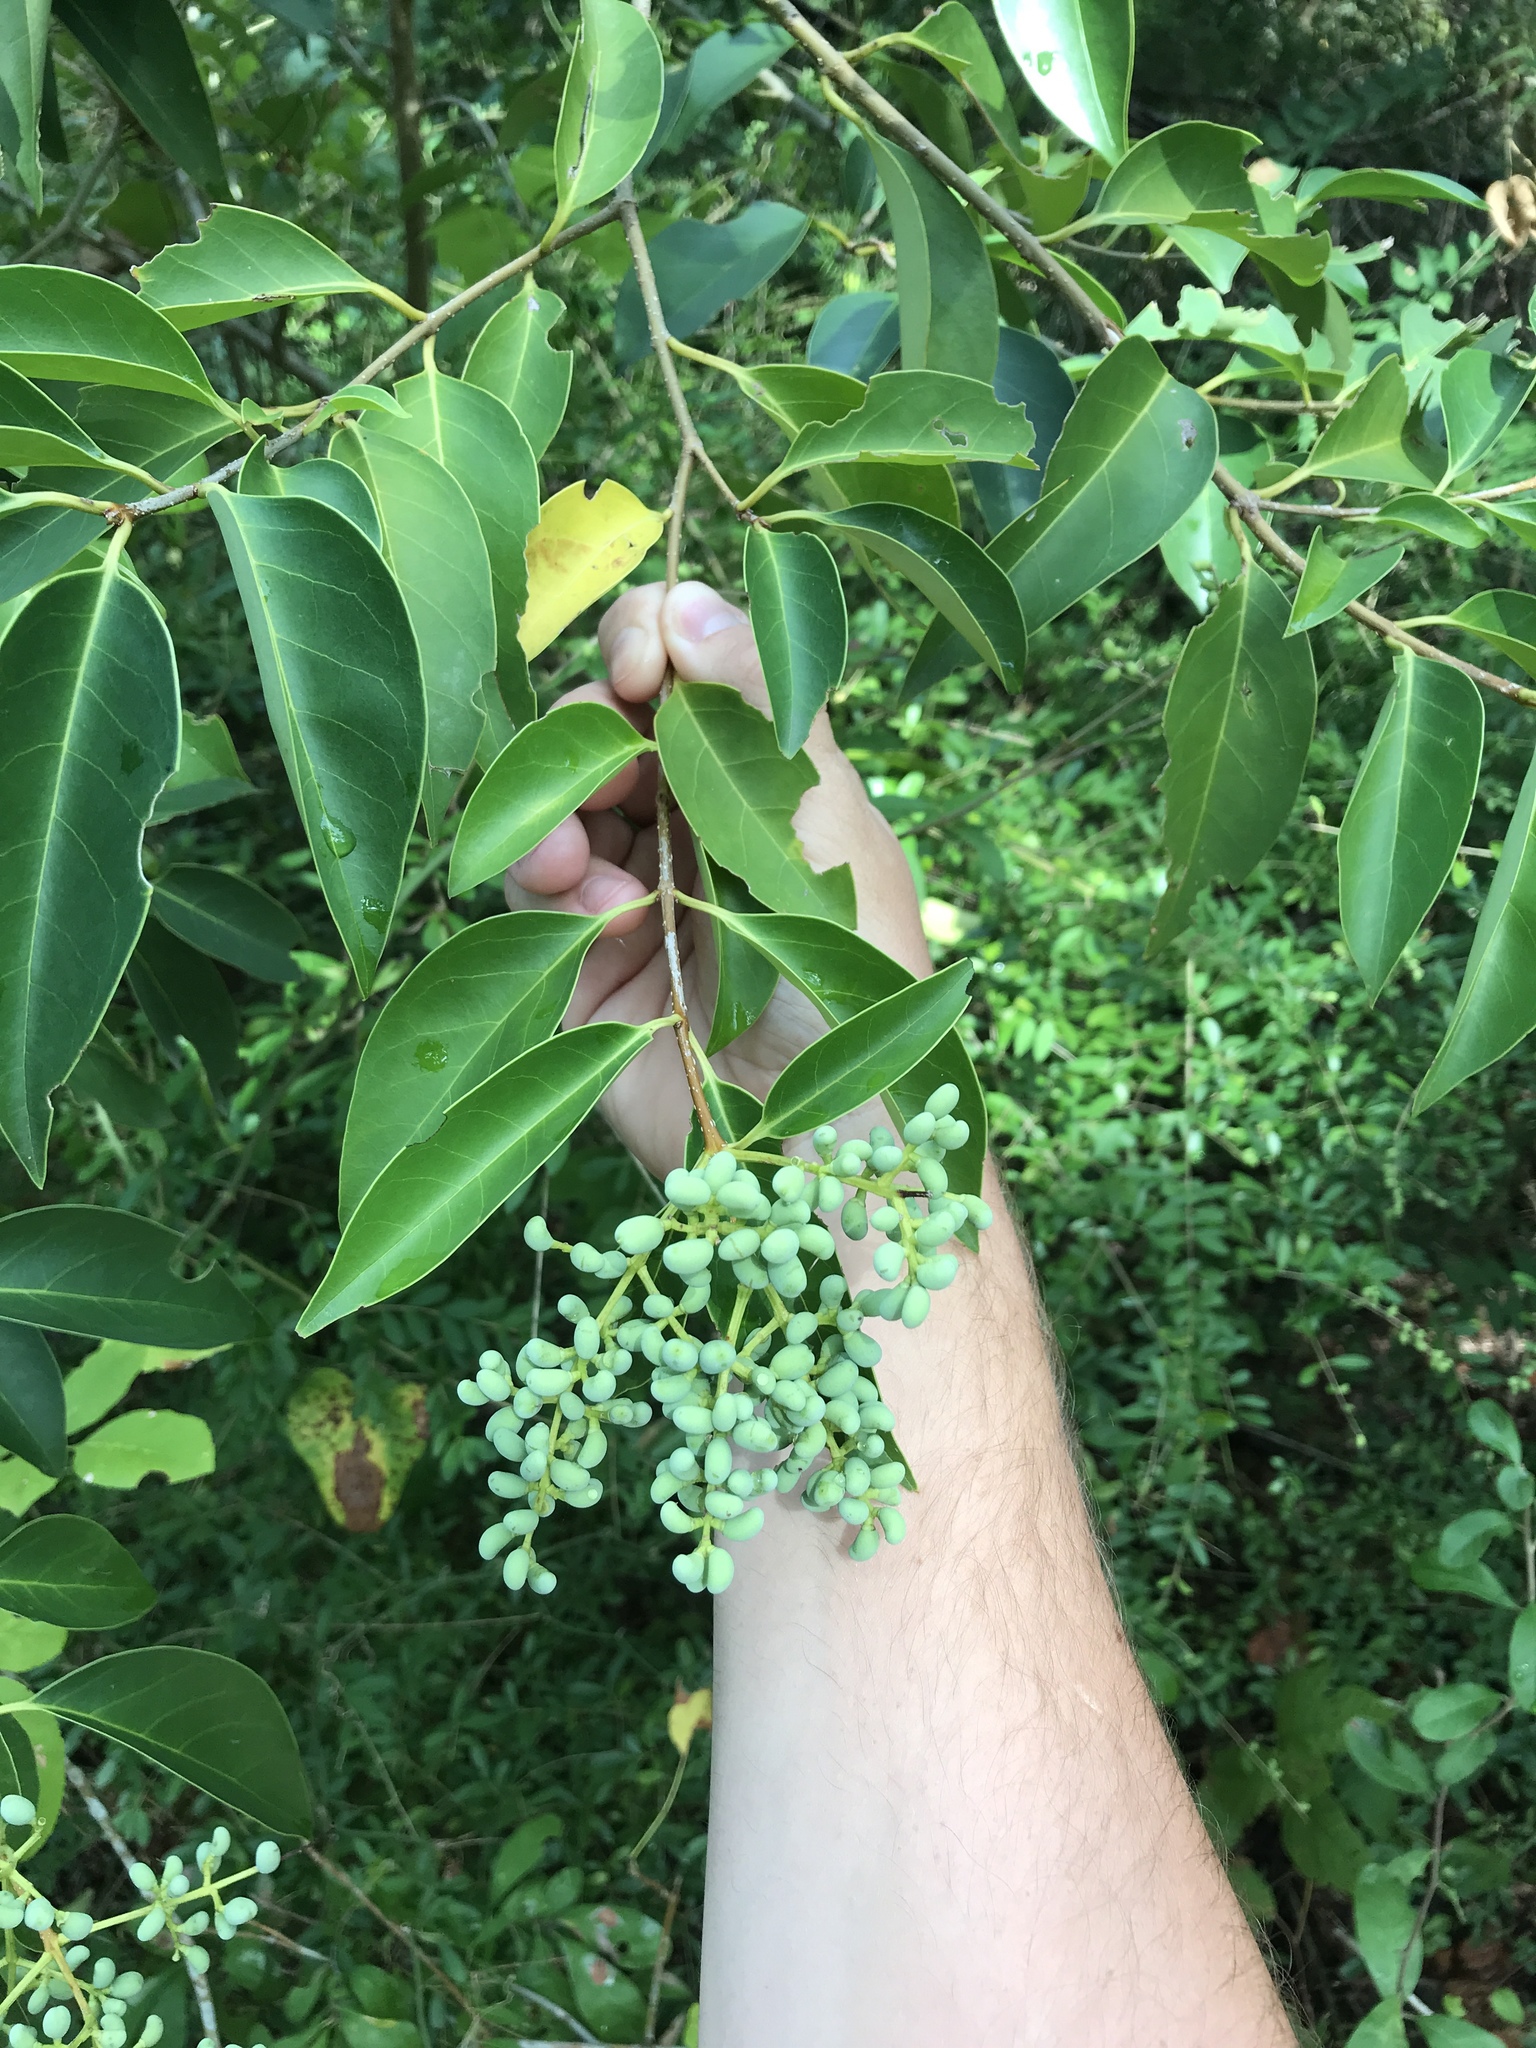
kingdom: Plantae
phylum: Tracheophyta
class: Magnoliopsida
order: Lamiales
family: Oleaceae
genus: Ligustrum
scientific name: Ligustrum lucidum
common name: Glossy privet
